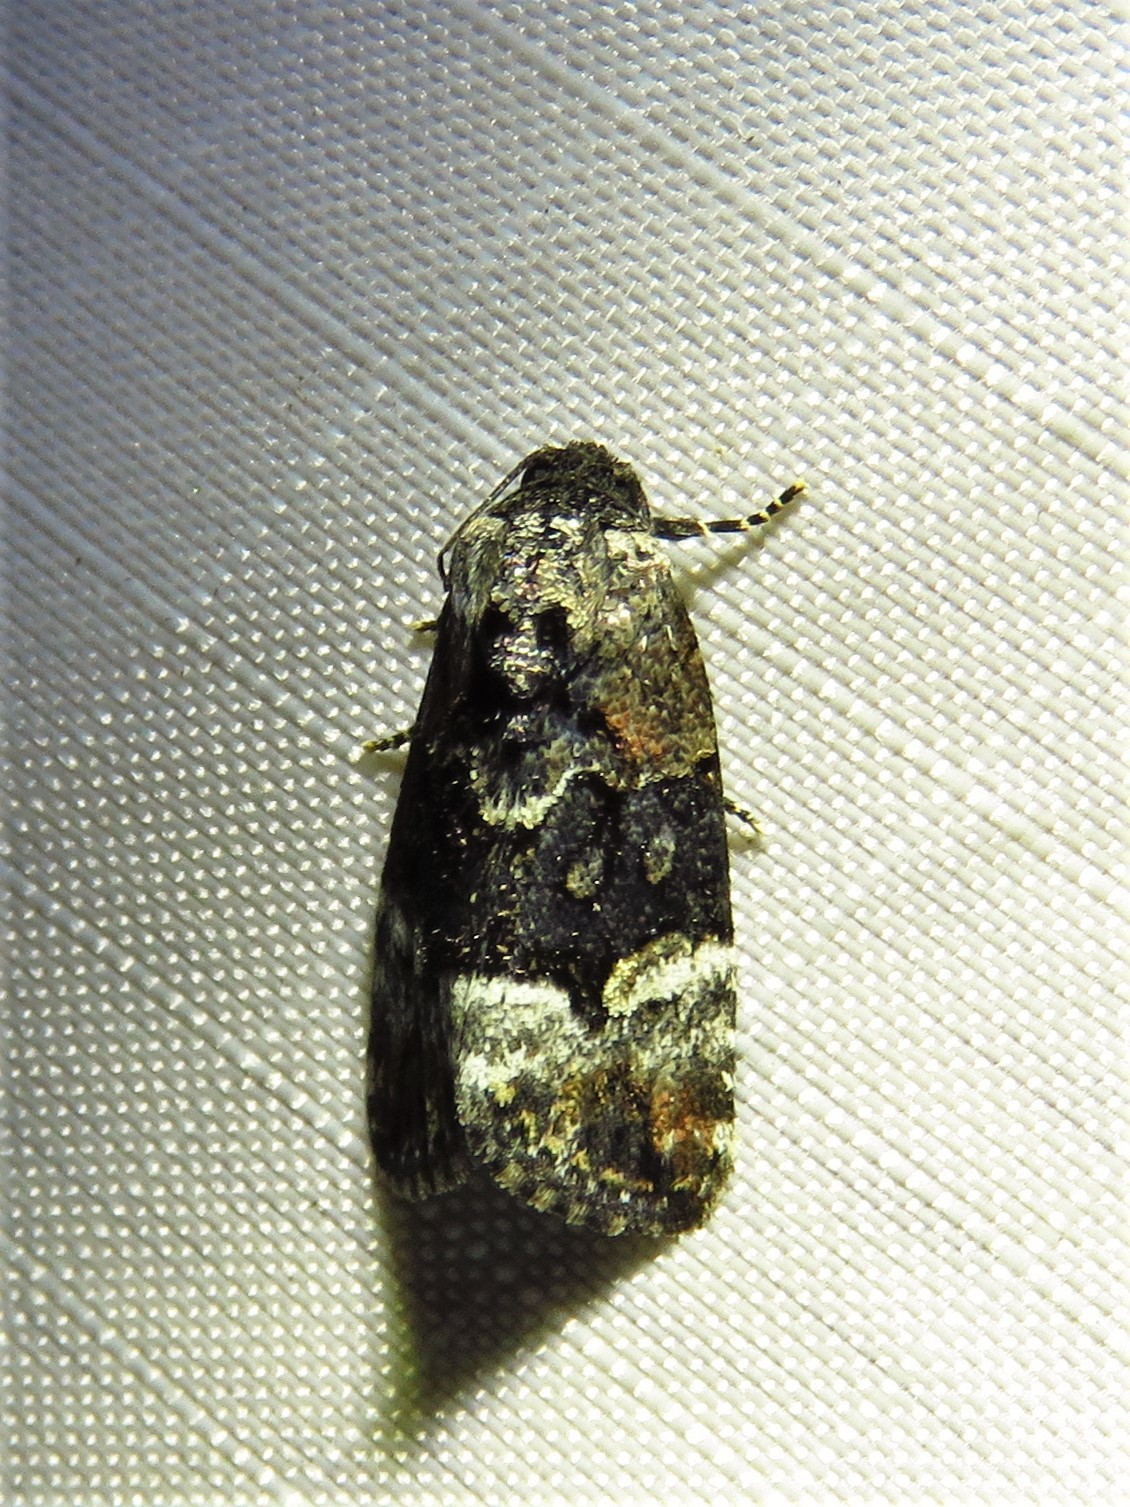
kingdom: Animalia
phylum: Arthropoda
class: Insecta
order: Lepidoptera
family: Noctuidae
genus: Elaphria
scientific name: Elaphria georgei
